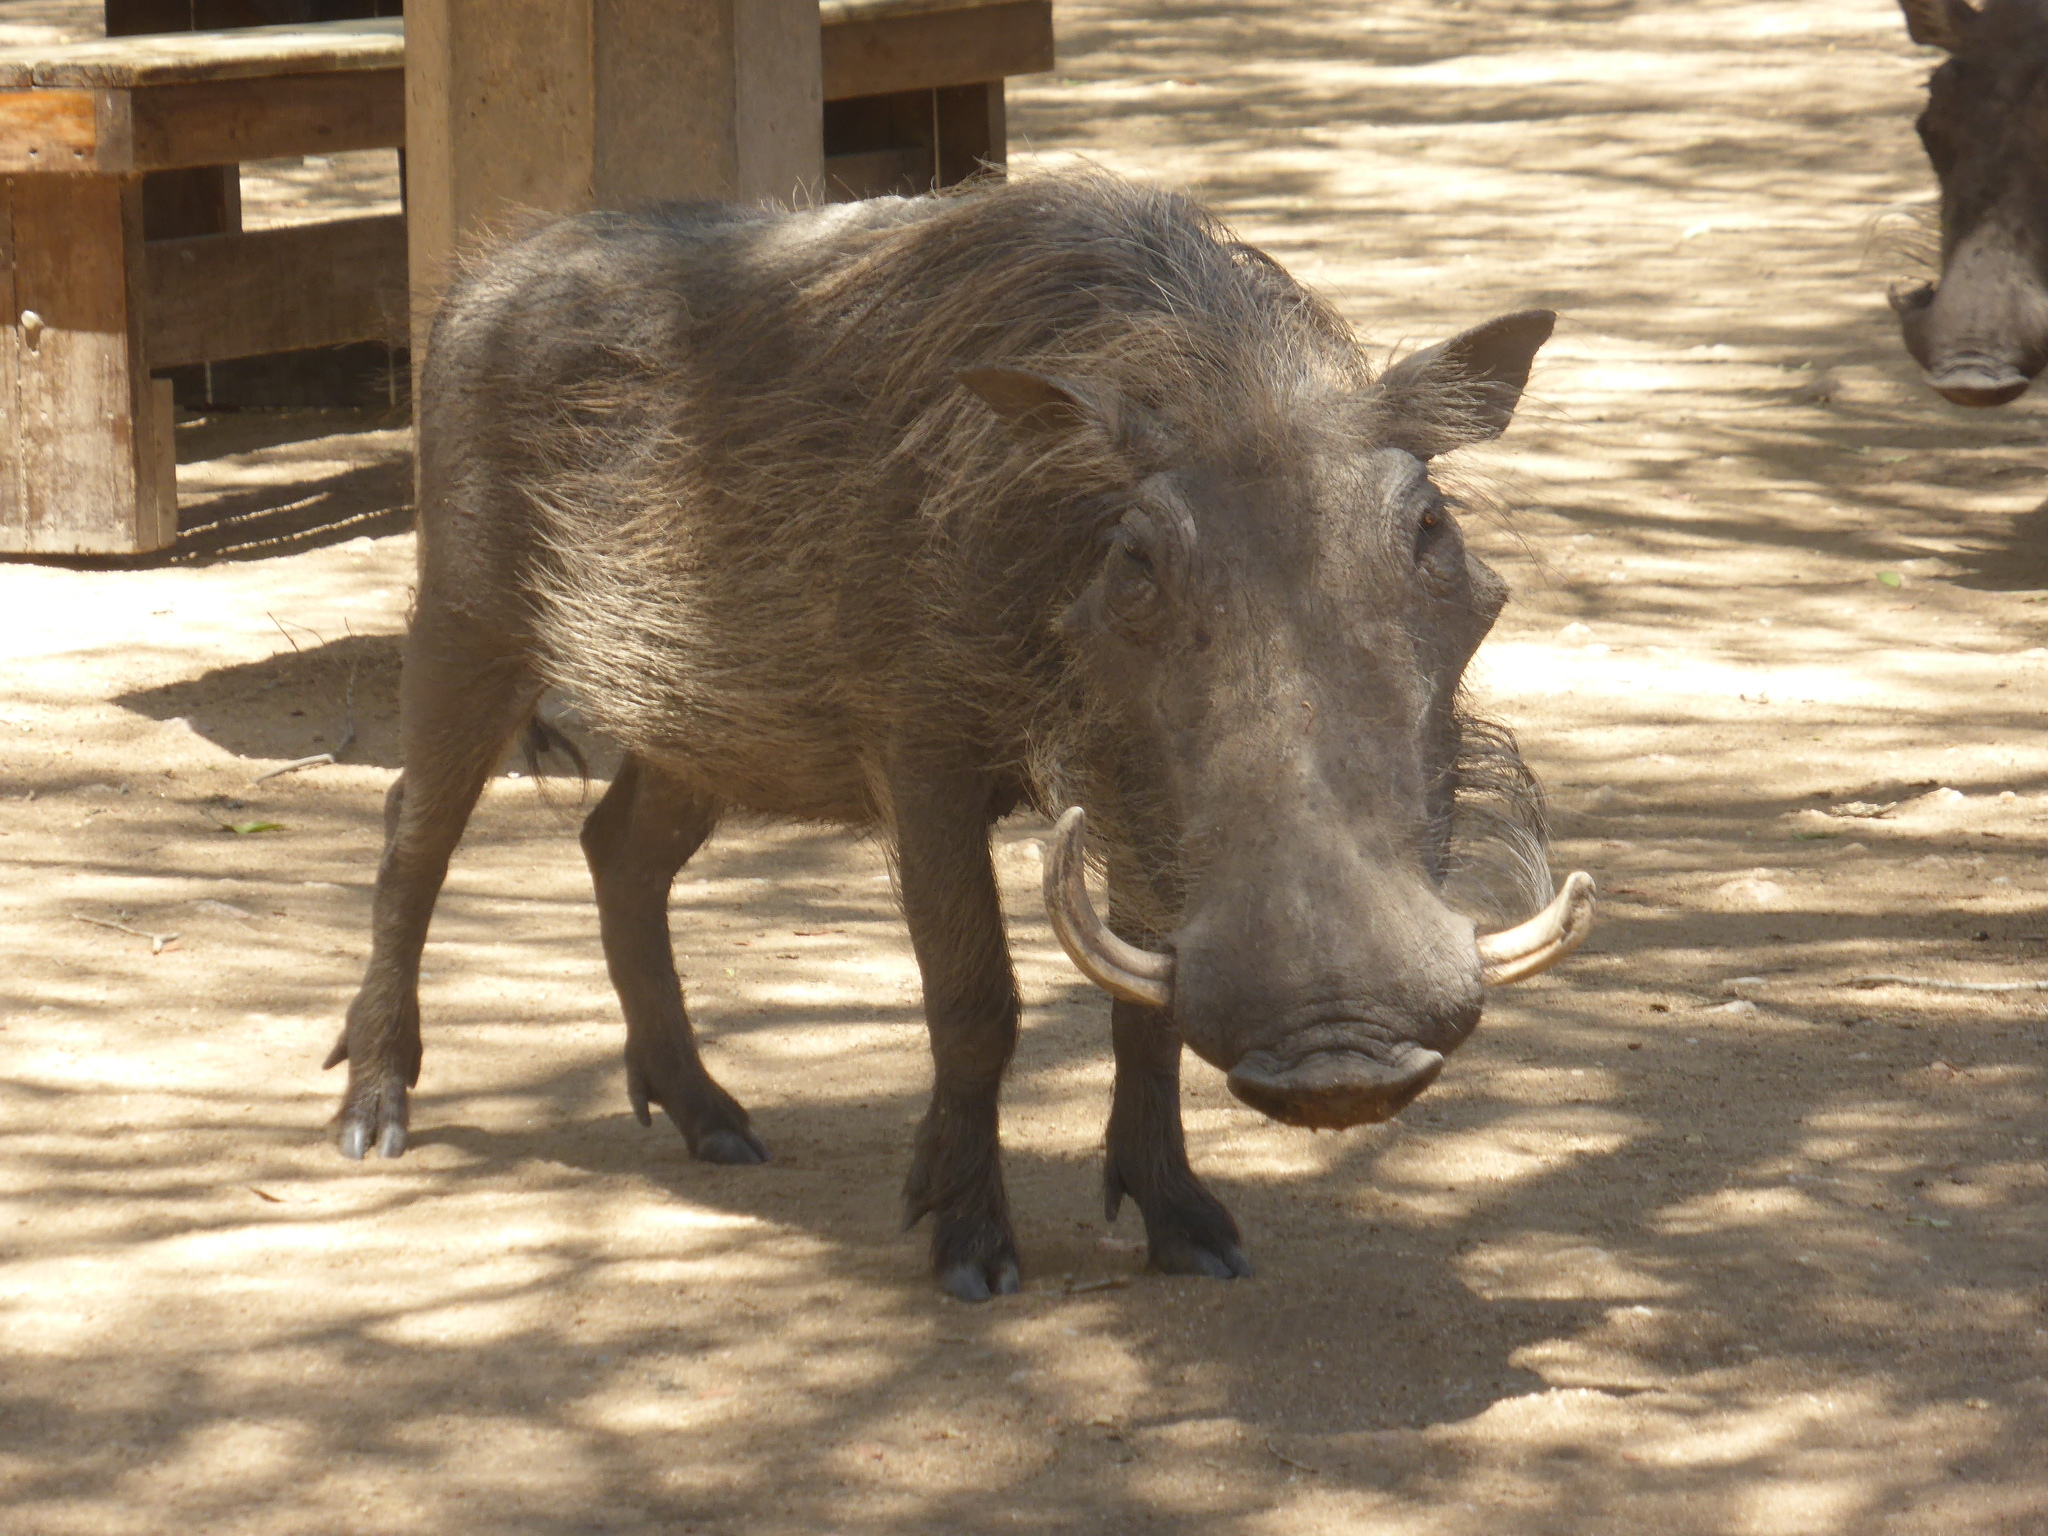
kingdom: Animalia
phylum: Chordata
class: Mammalia
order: Artiodactyla
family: Suidae
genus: Phacochoerus
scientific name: Phacochoerus africanus
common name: Common warthog
